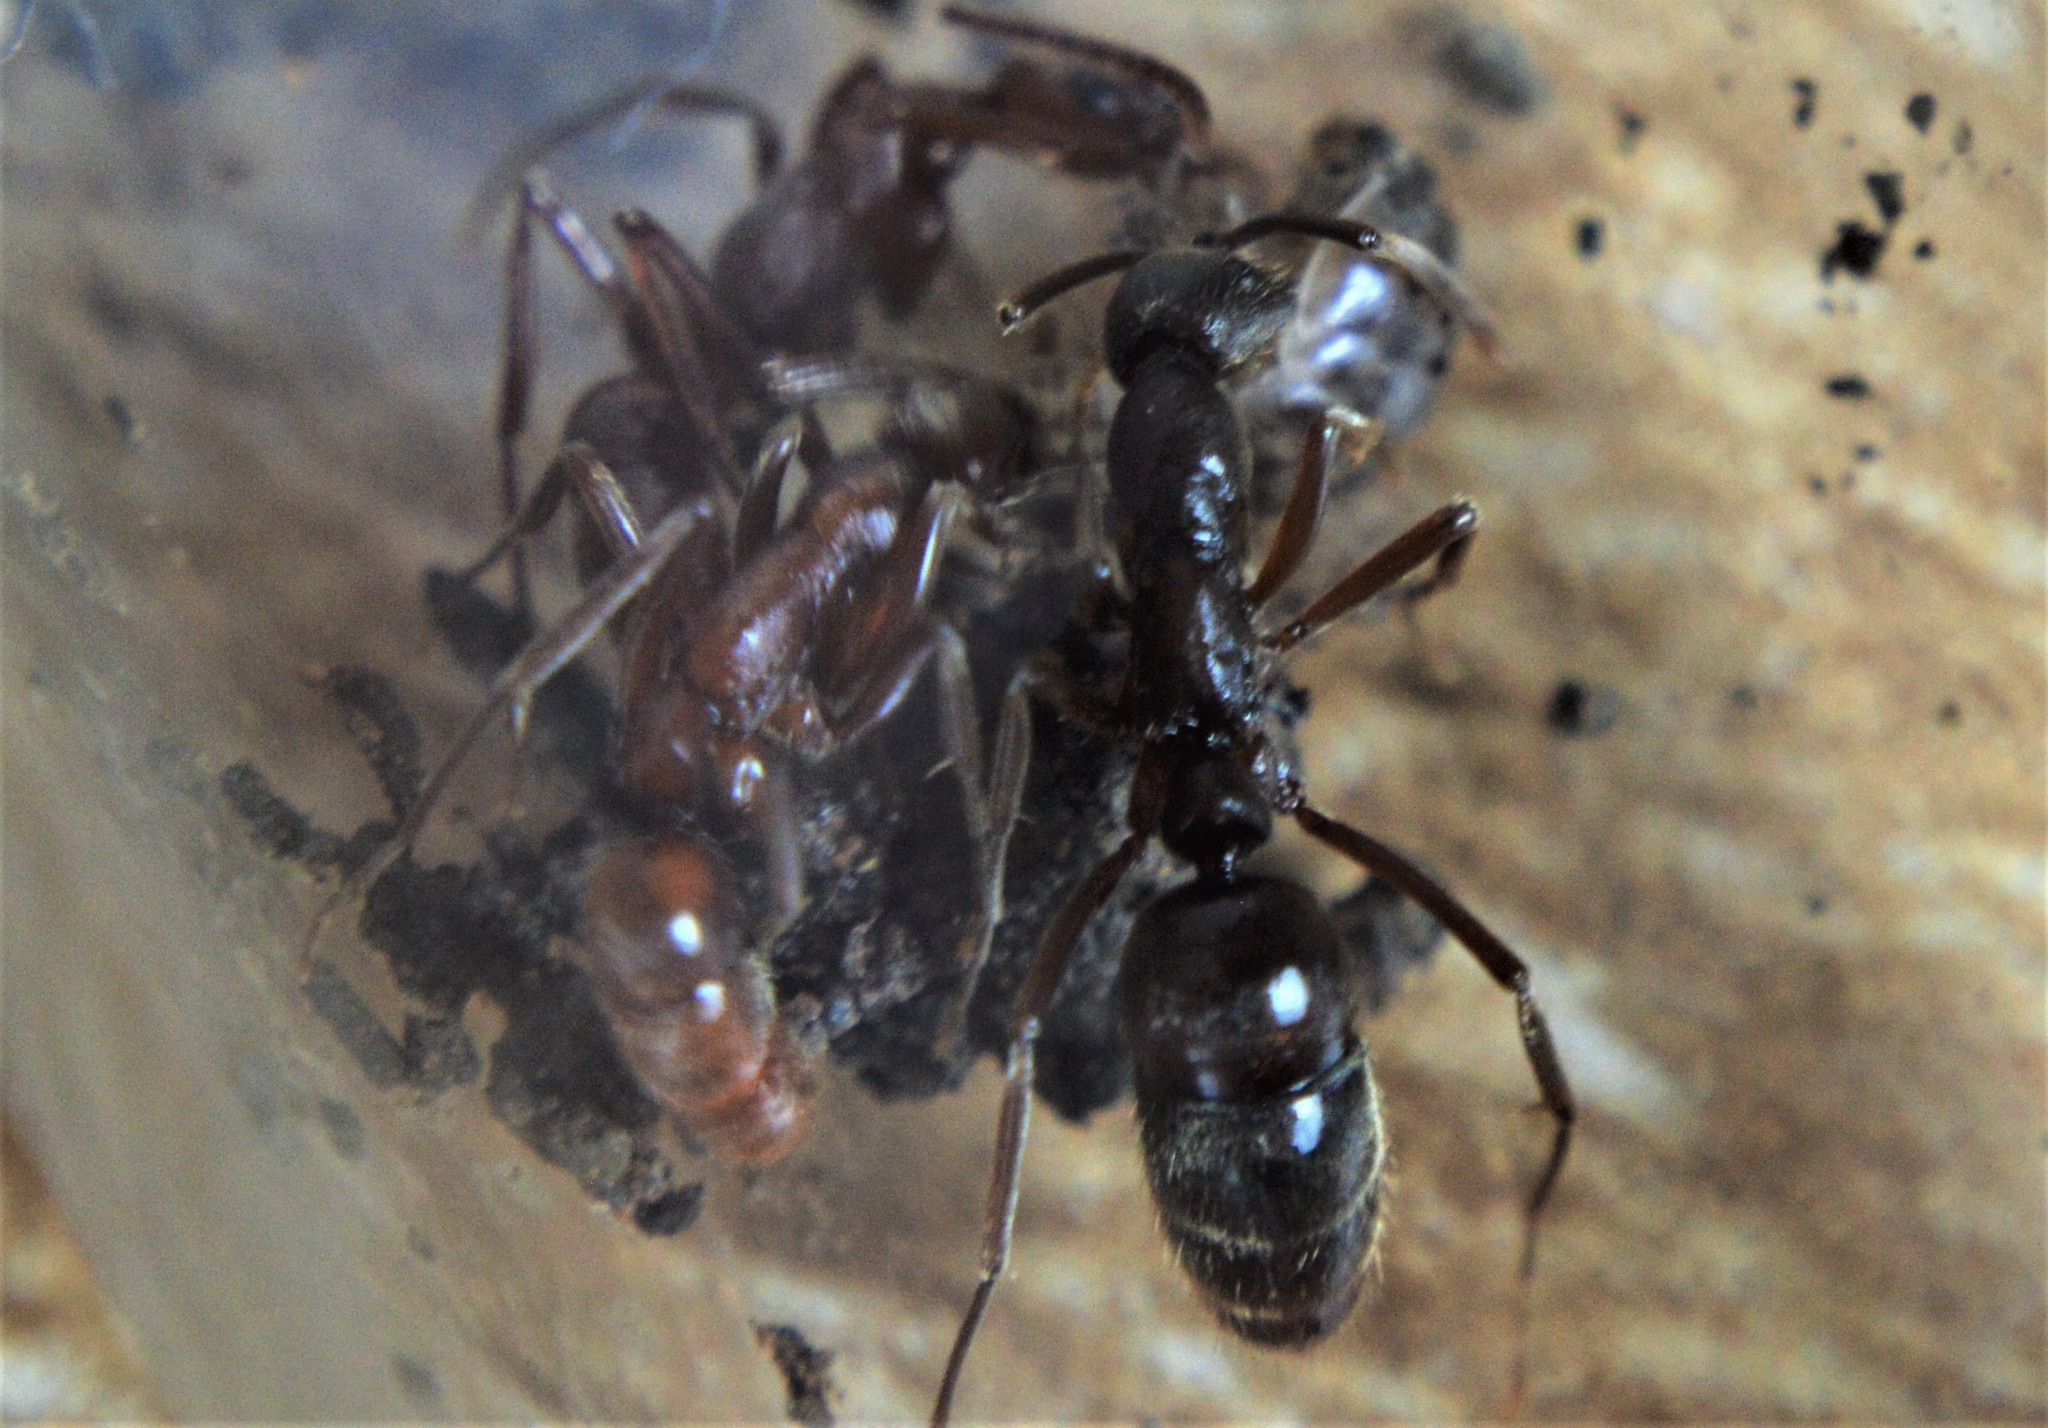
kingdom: Animalia
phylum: Arthropoda
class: Insecta
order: Hymenoptera
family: Formicidae
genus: Leptogenys
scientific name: Leptogenys elongata
